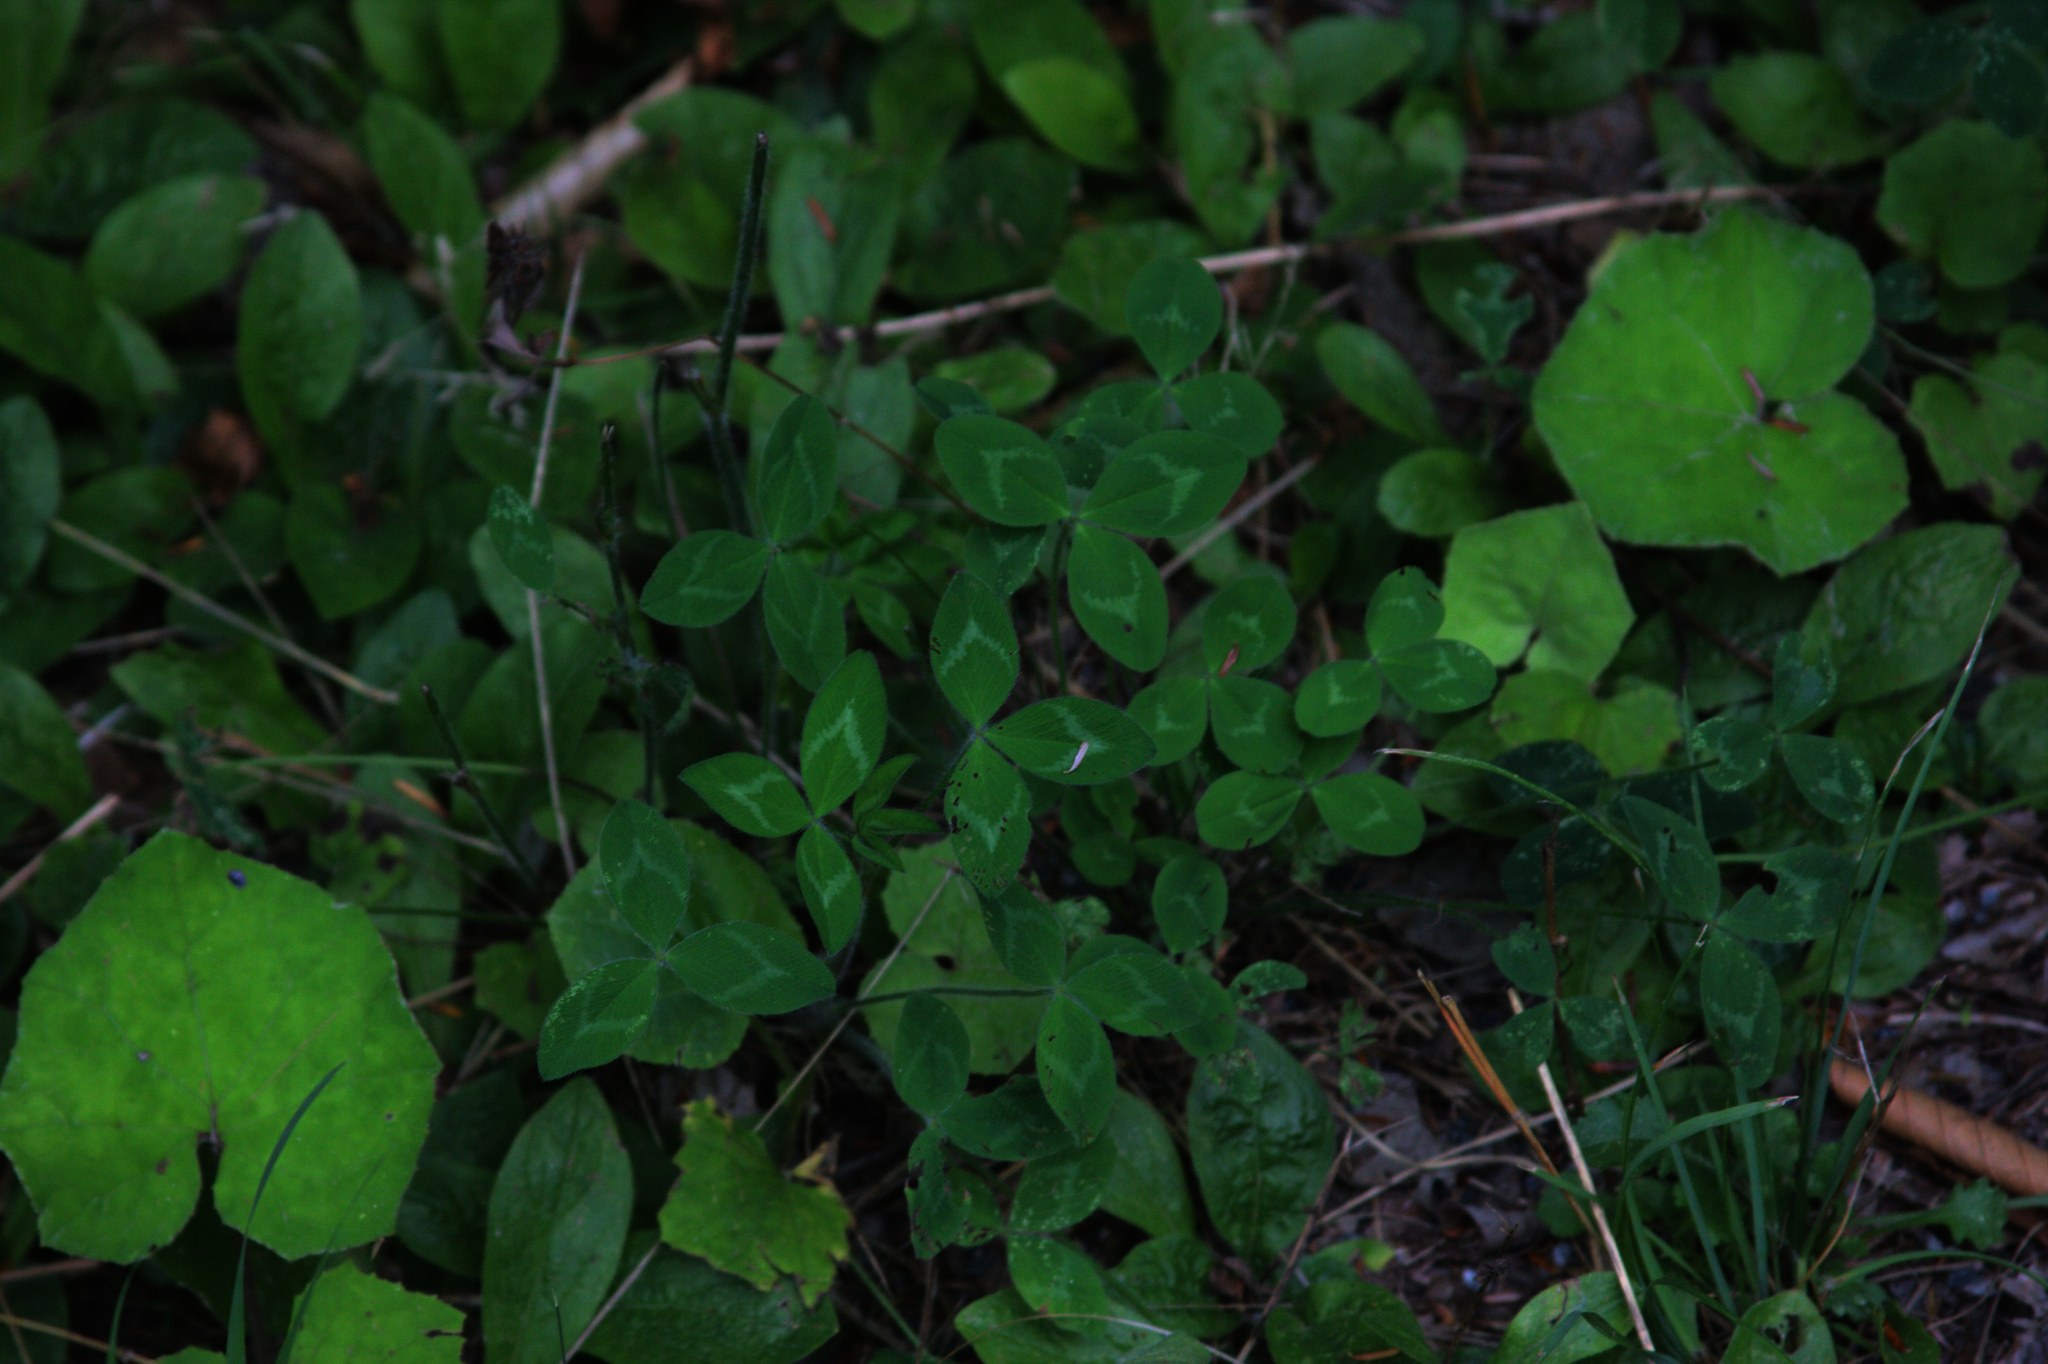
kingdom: Plantae
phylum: Tracheophyta
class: Magnoliopsida
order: Fabales
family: Fabaceae
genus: Trifolium
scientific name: Trifolium pratense
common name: Red clover
